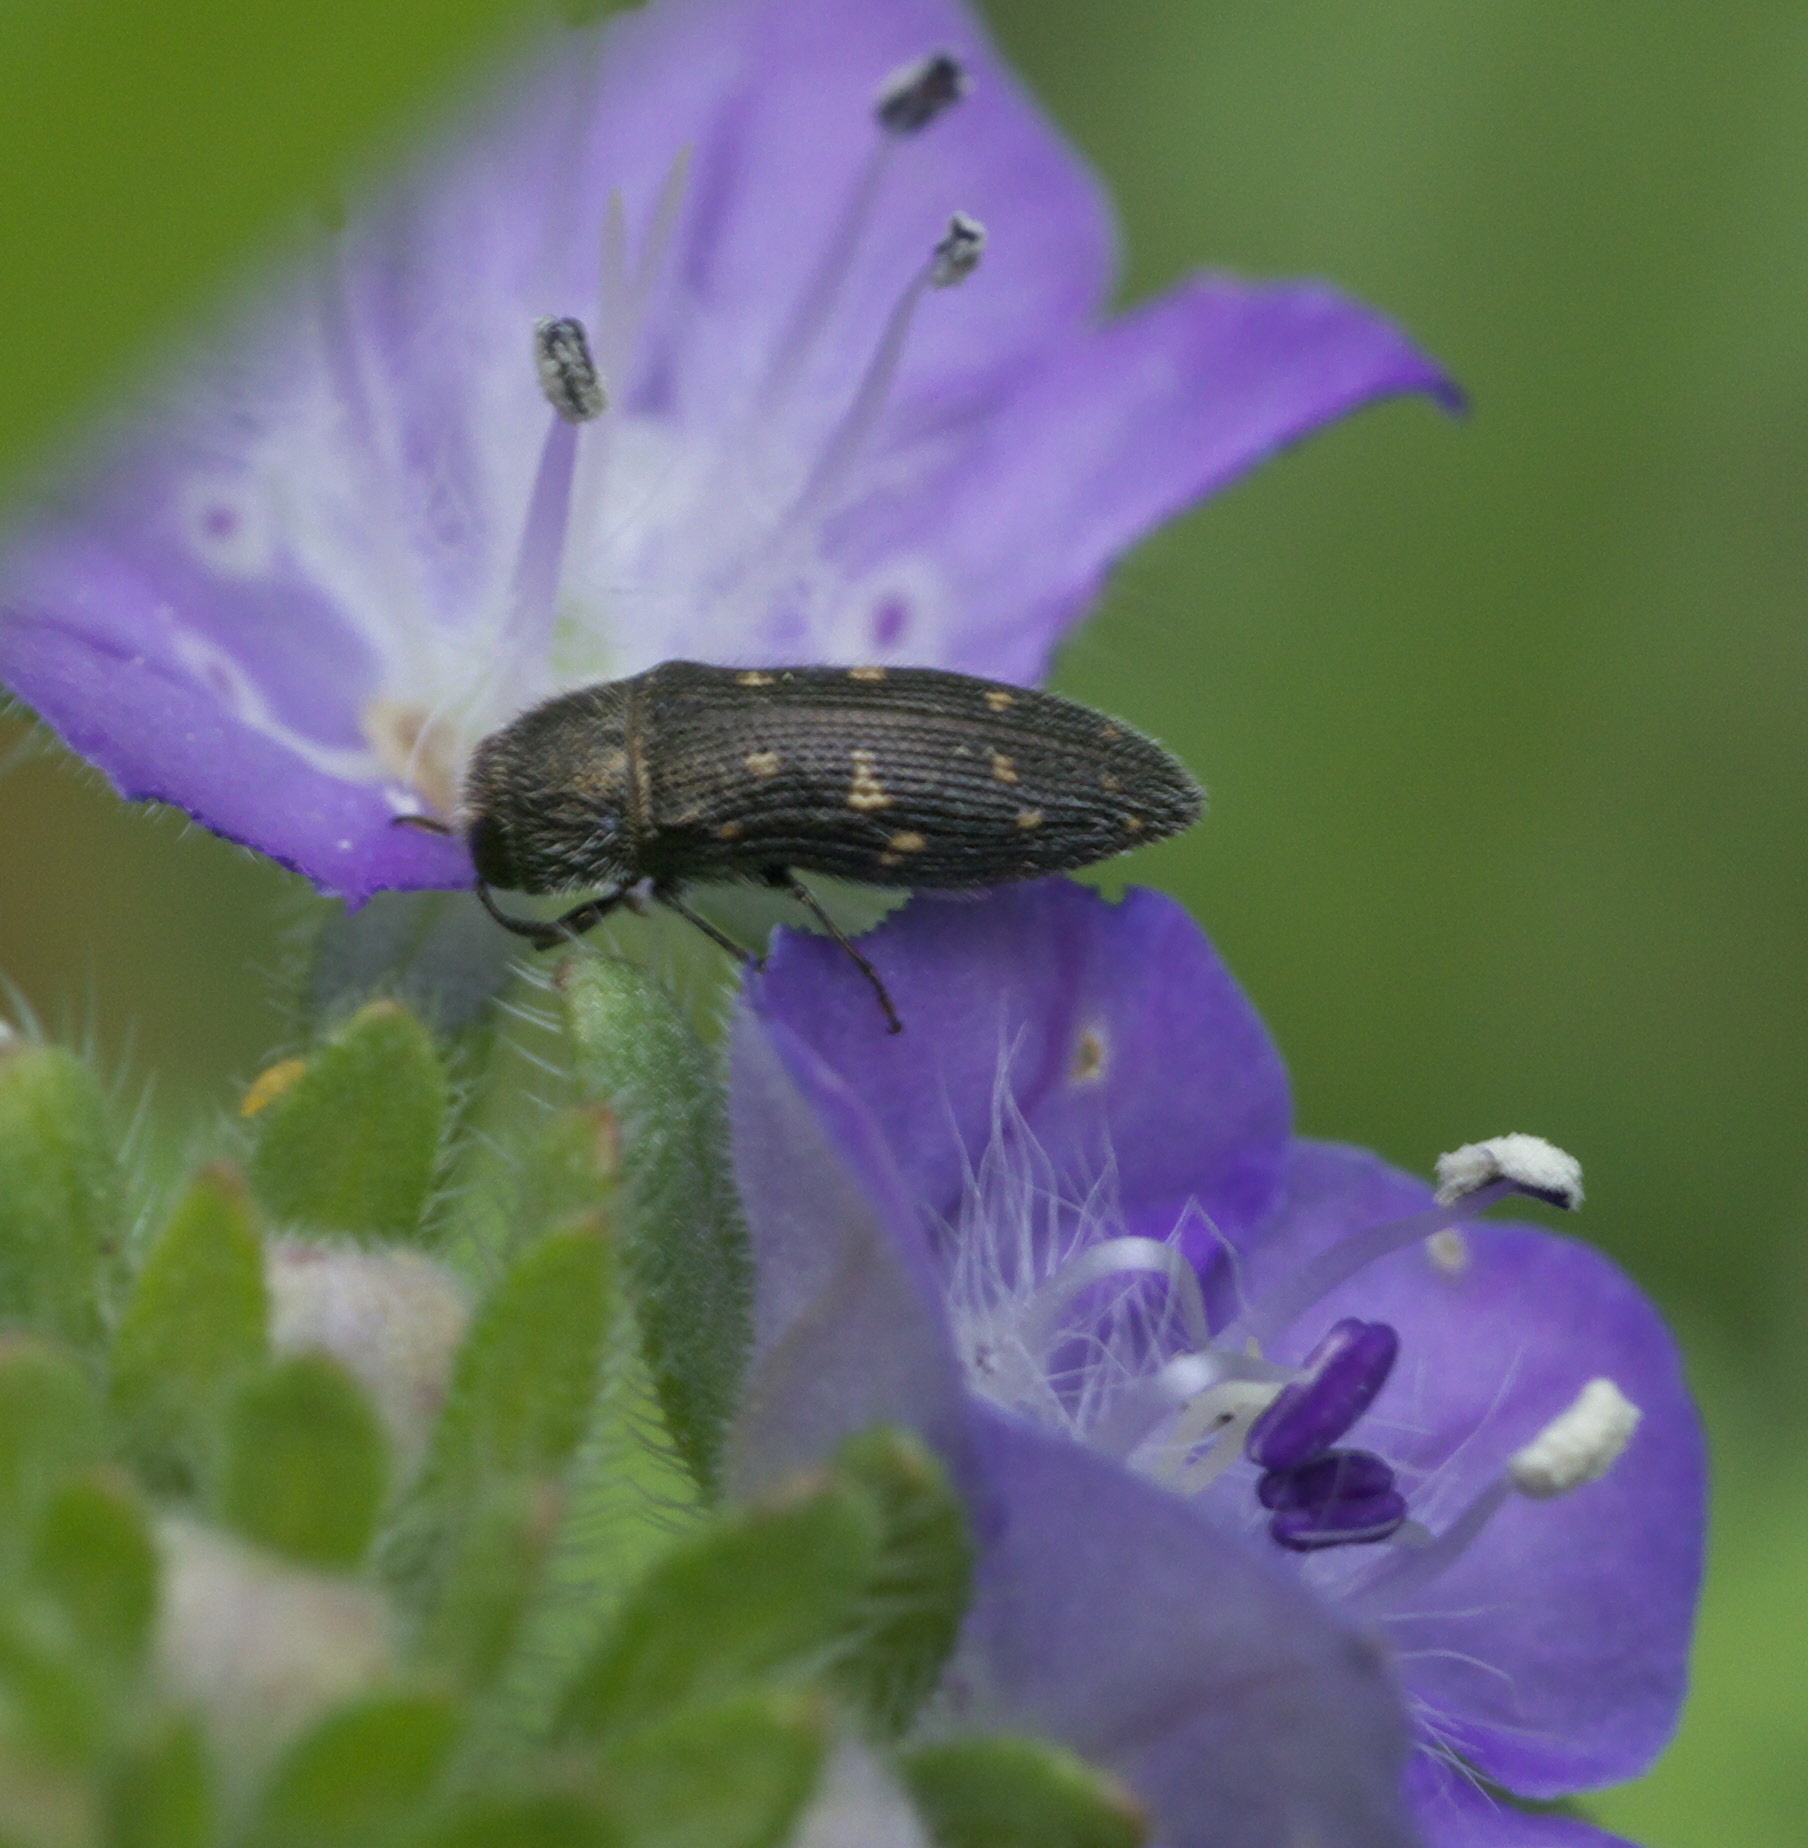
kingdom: Animalia
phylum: Arthropoda
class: Insecta
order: Coleoptera
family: Buprestidae
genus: Acmaeodera
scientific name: Acmaeodera tubulus
